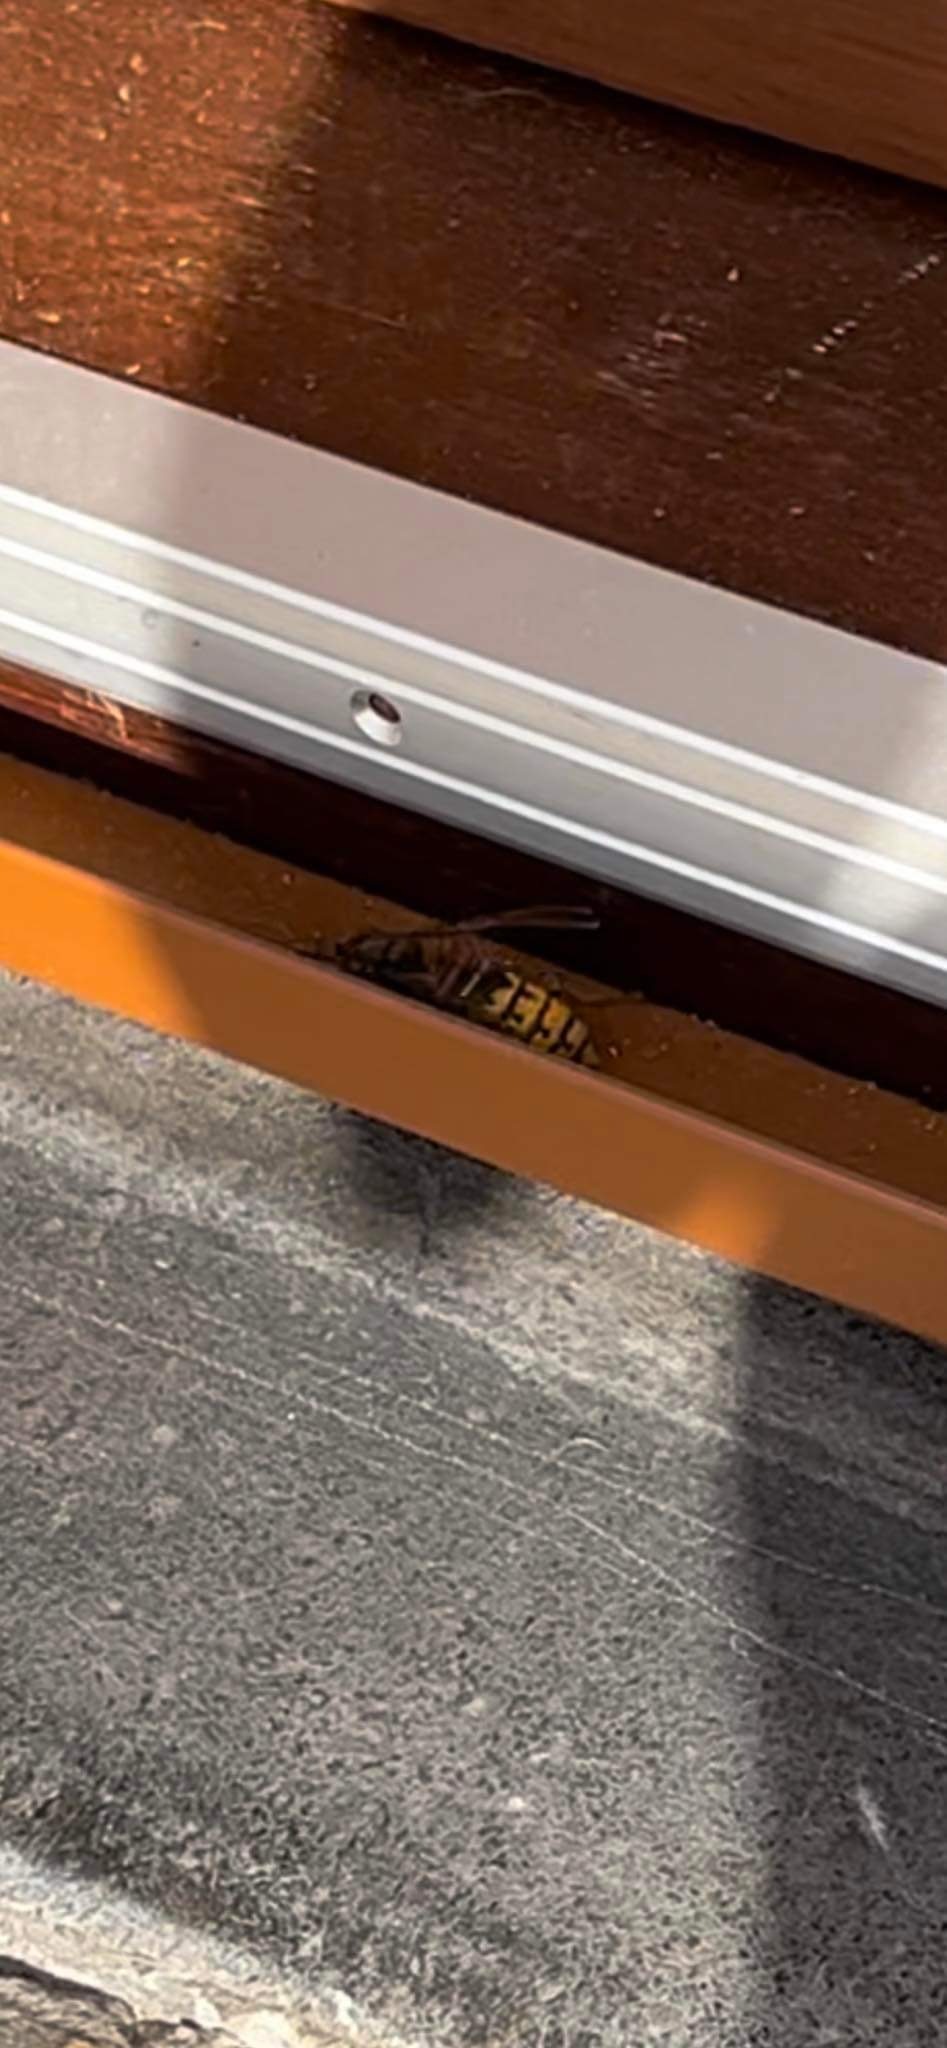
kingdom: Animalia
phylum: Arthropoda
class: Insecta
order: Hymenoptera
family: Vespidae
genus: Vespa
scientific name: Vespa crabro
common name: Hornet
